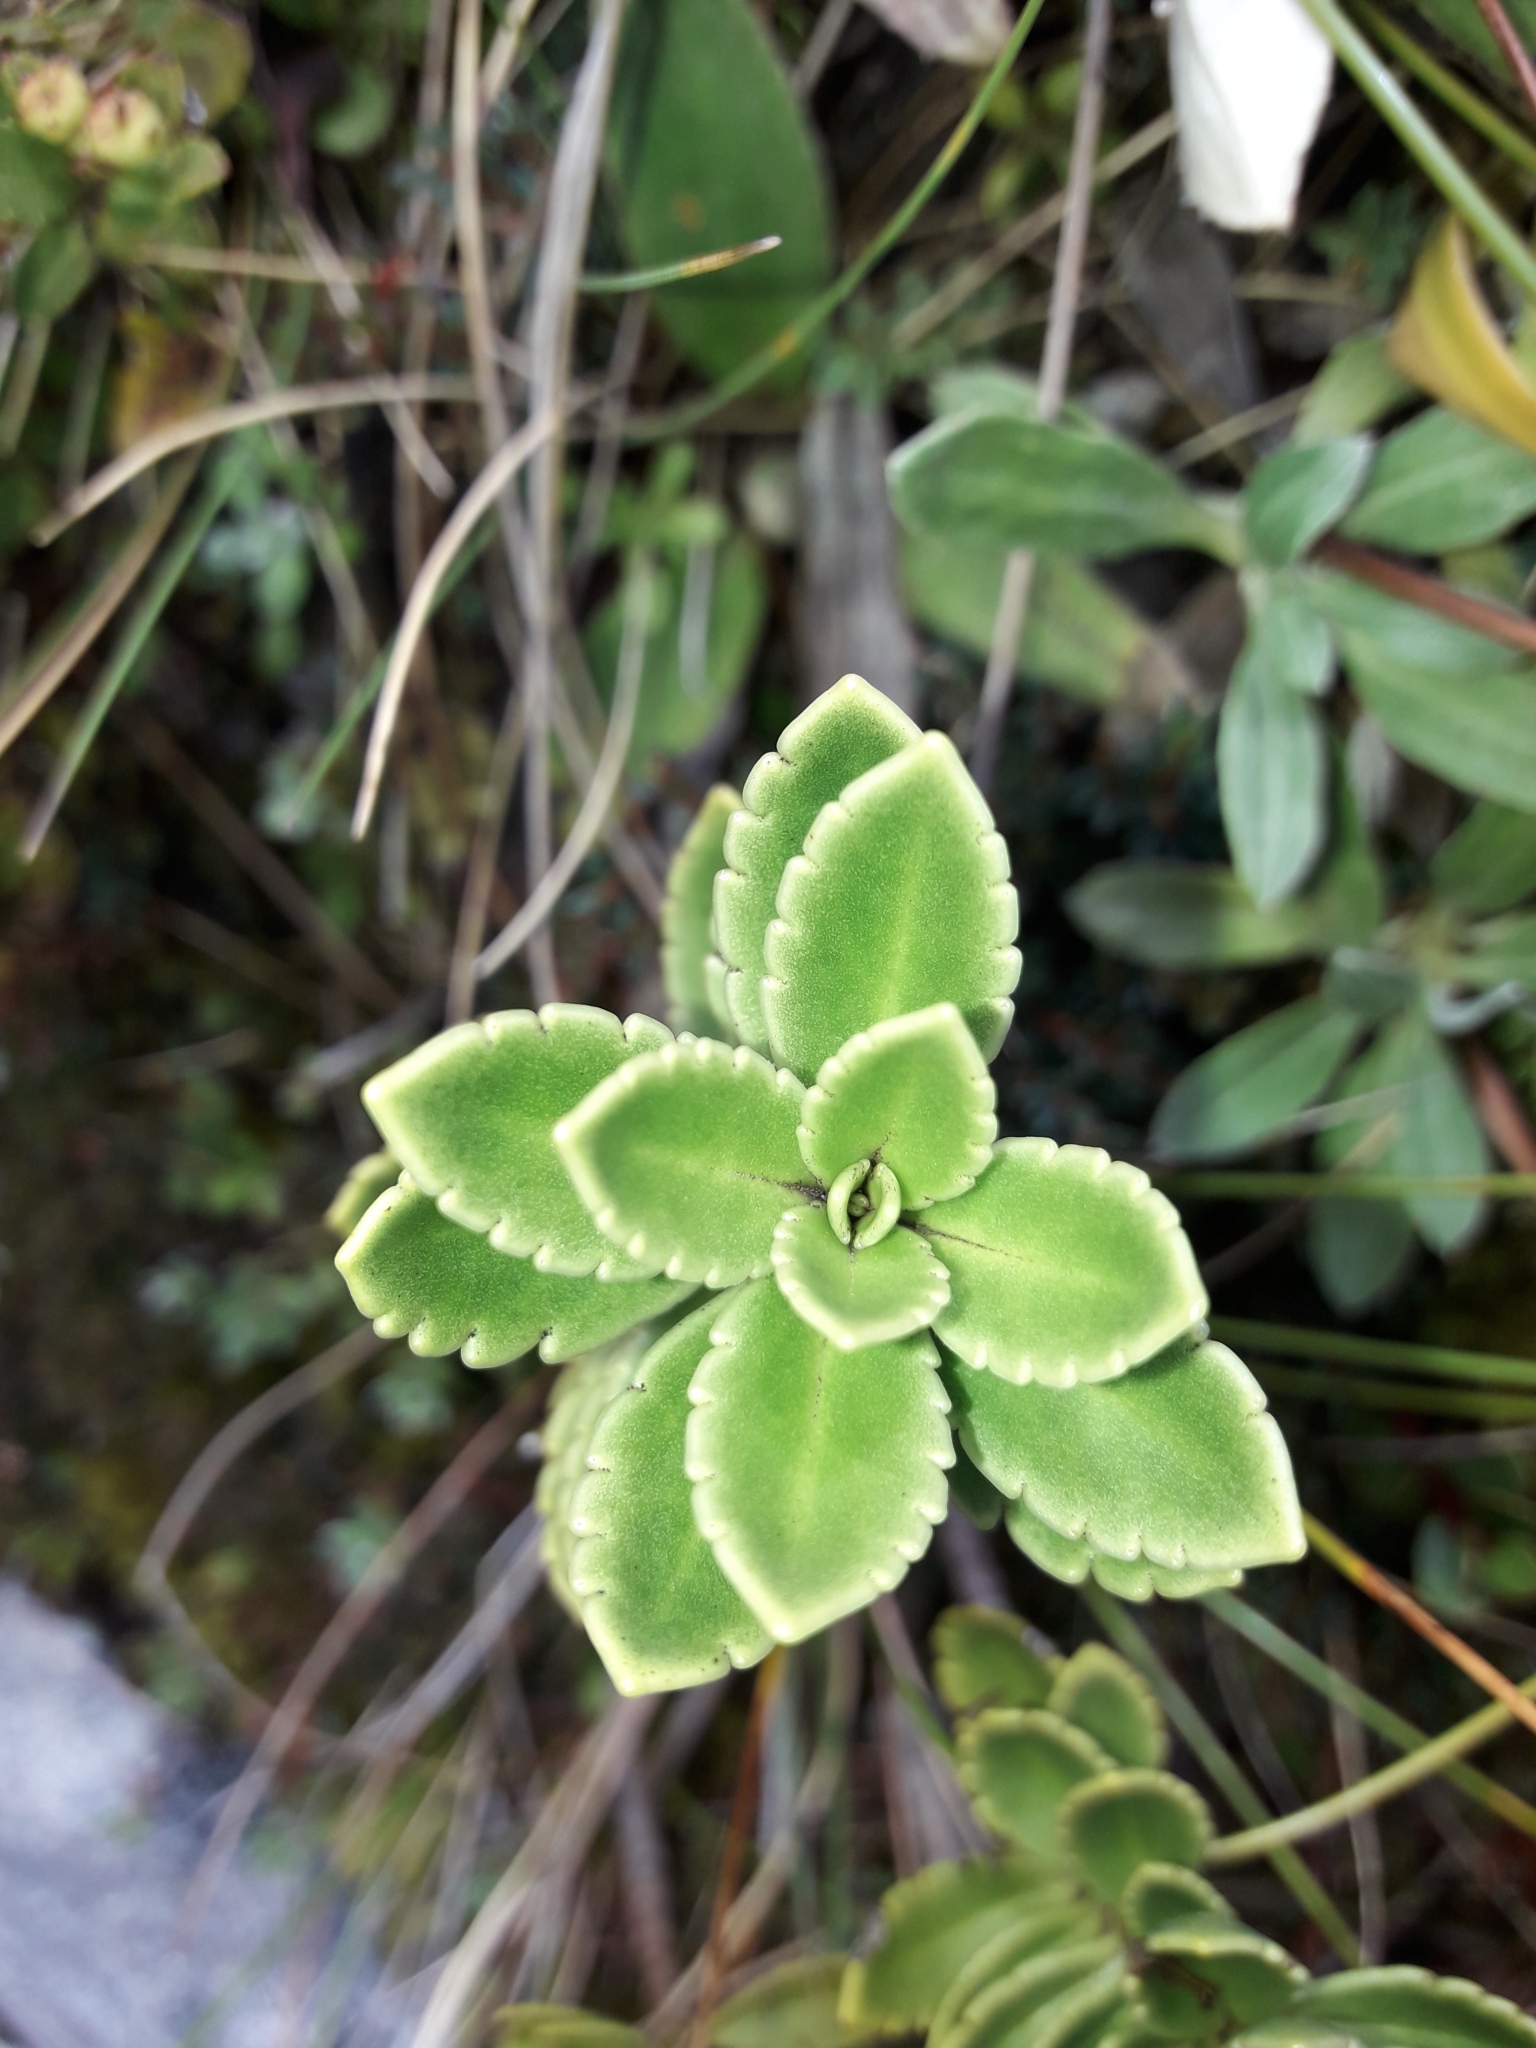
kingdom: Plantae
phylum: Tracheophyta
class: Magnoliopsida
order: Lamiales
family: Plantaginaceae
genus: Veronica
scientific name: Veronica macrantha
